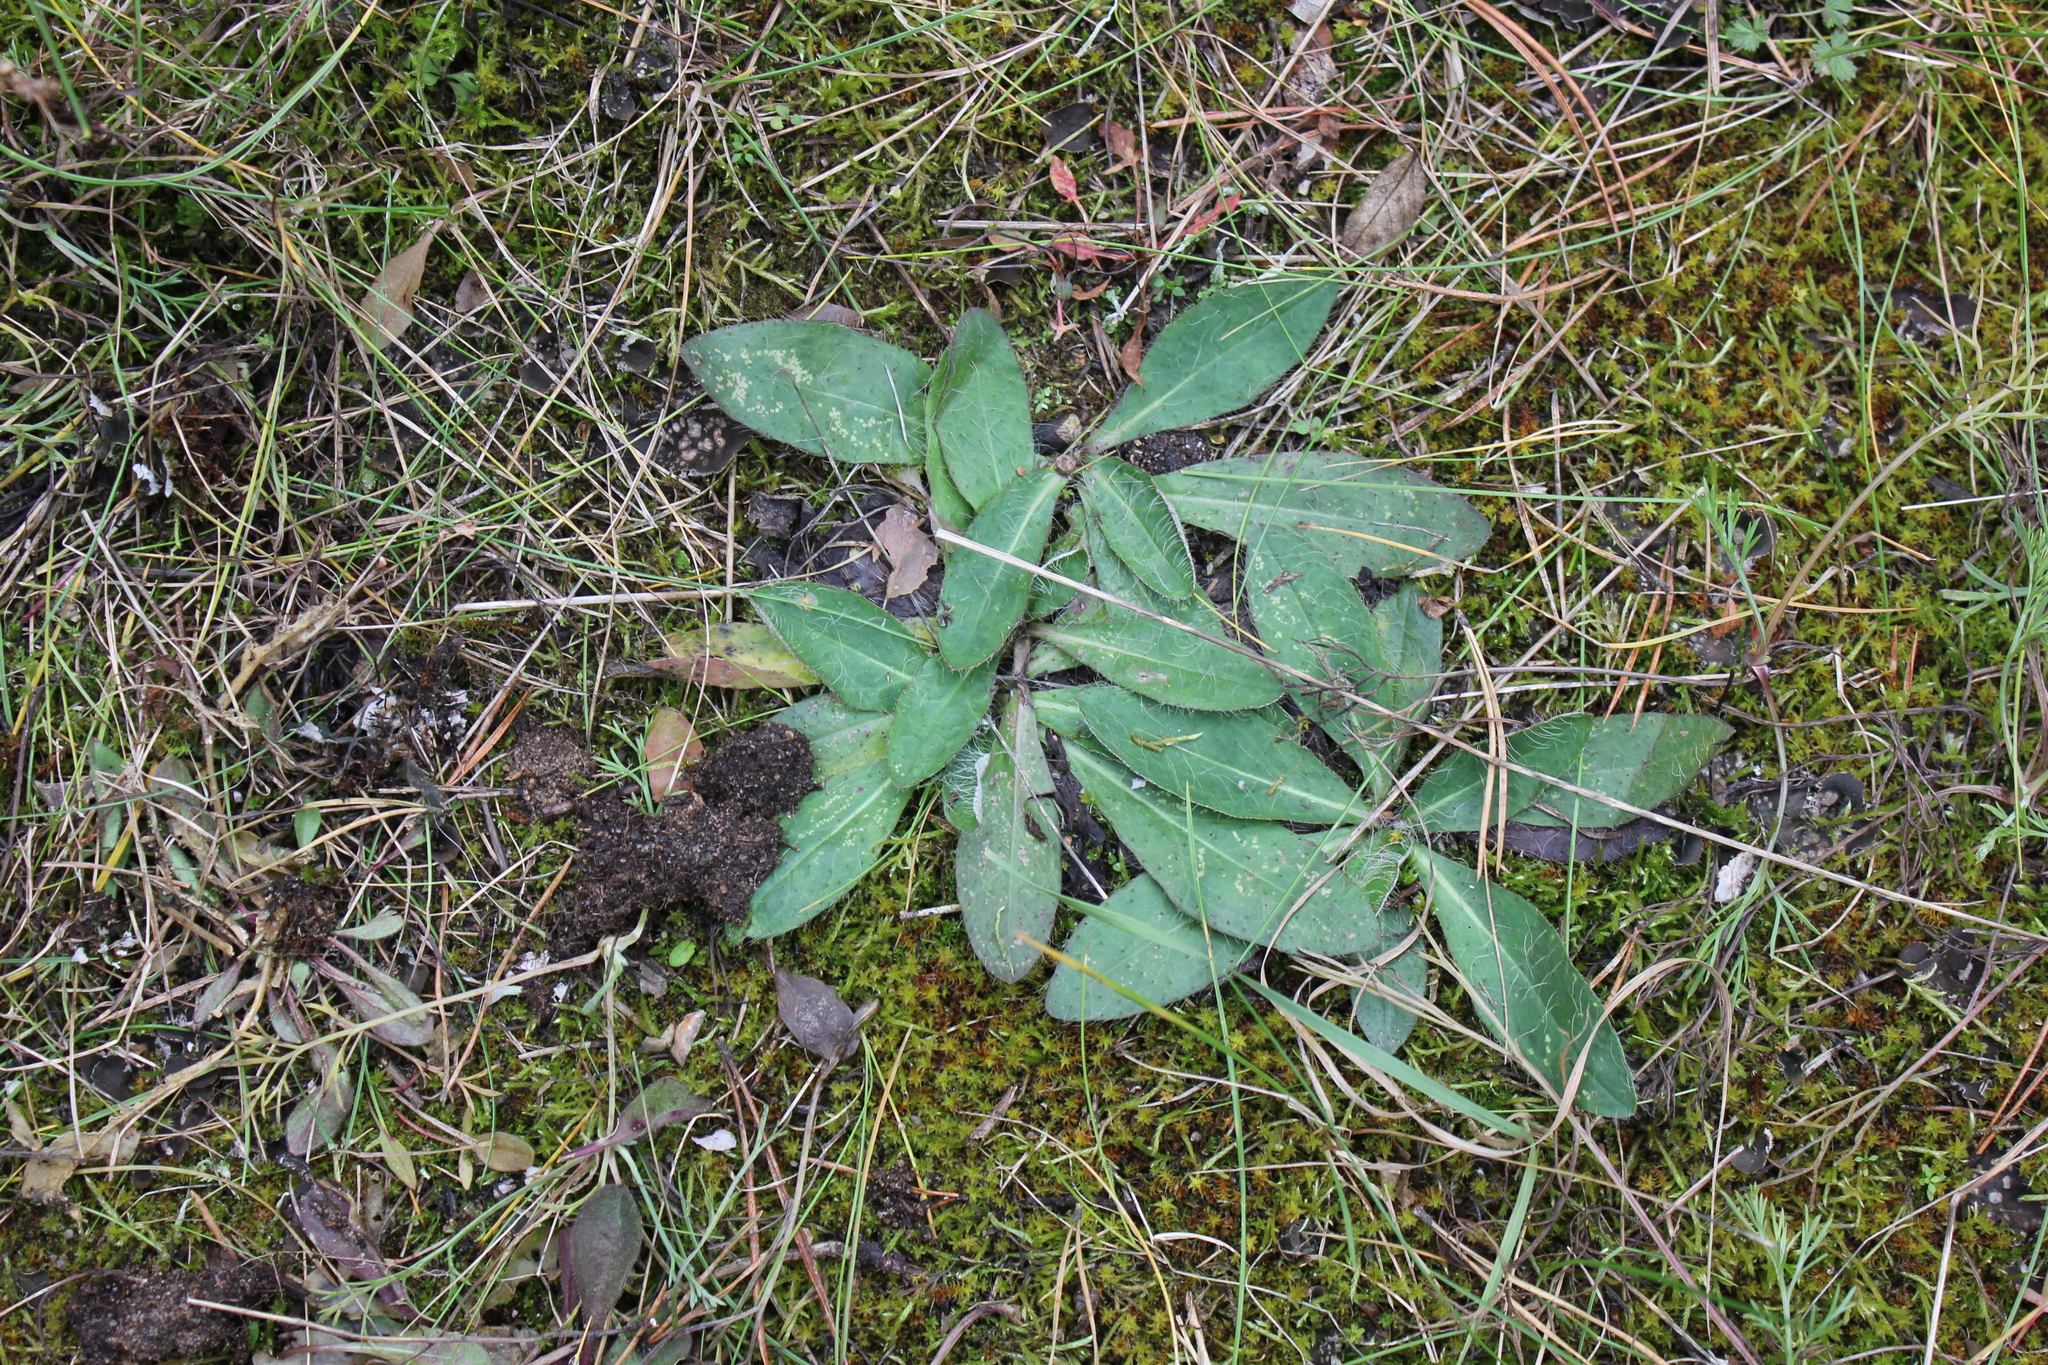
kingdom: Plantae
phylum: Tracheophyta
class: Magnoliopsida
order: Asterales
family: Asteraceae
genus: Pilosella
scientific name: Pilosella officinarum
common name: Mouse-ear hawkweed
